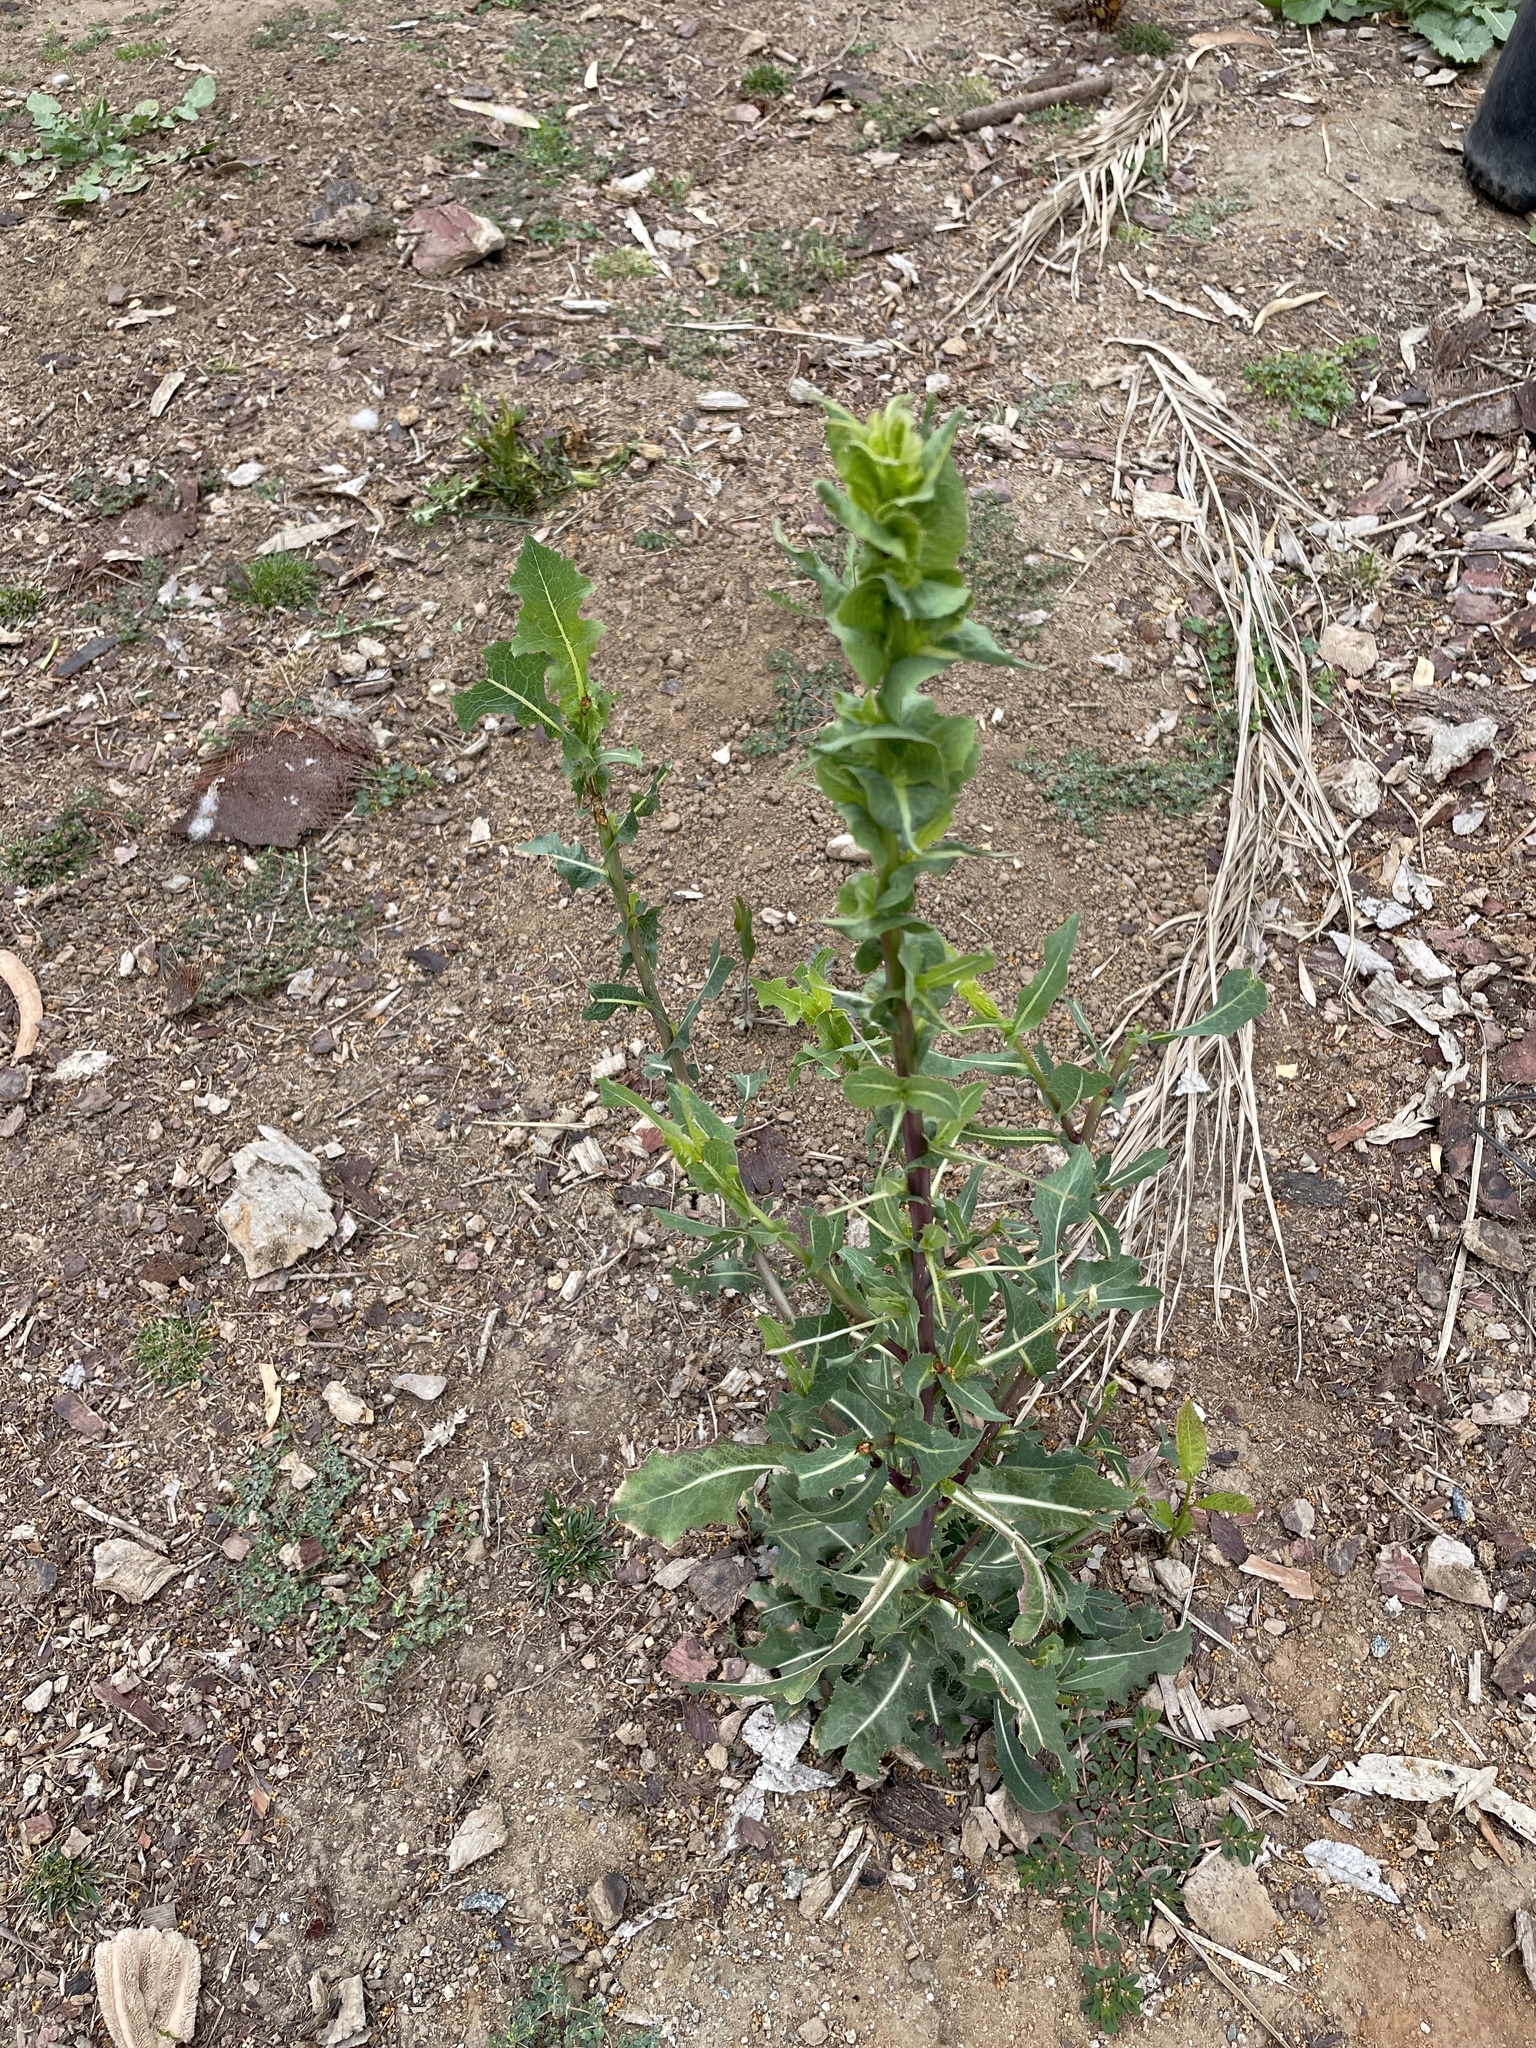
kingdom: Plantae
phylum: Tracheophyta
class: Magnoliopsida
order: Asterales
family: Asteraceae
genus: Lactuca
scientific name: Lactuca serriola
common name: Prickly lettuce
